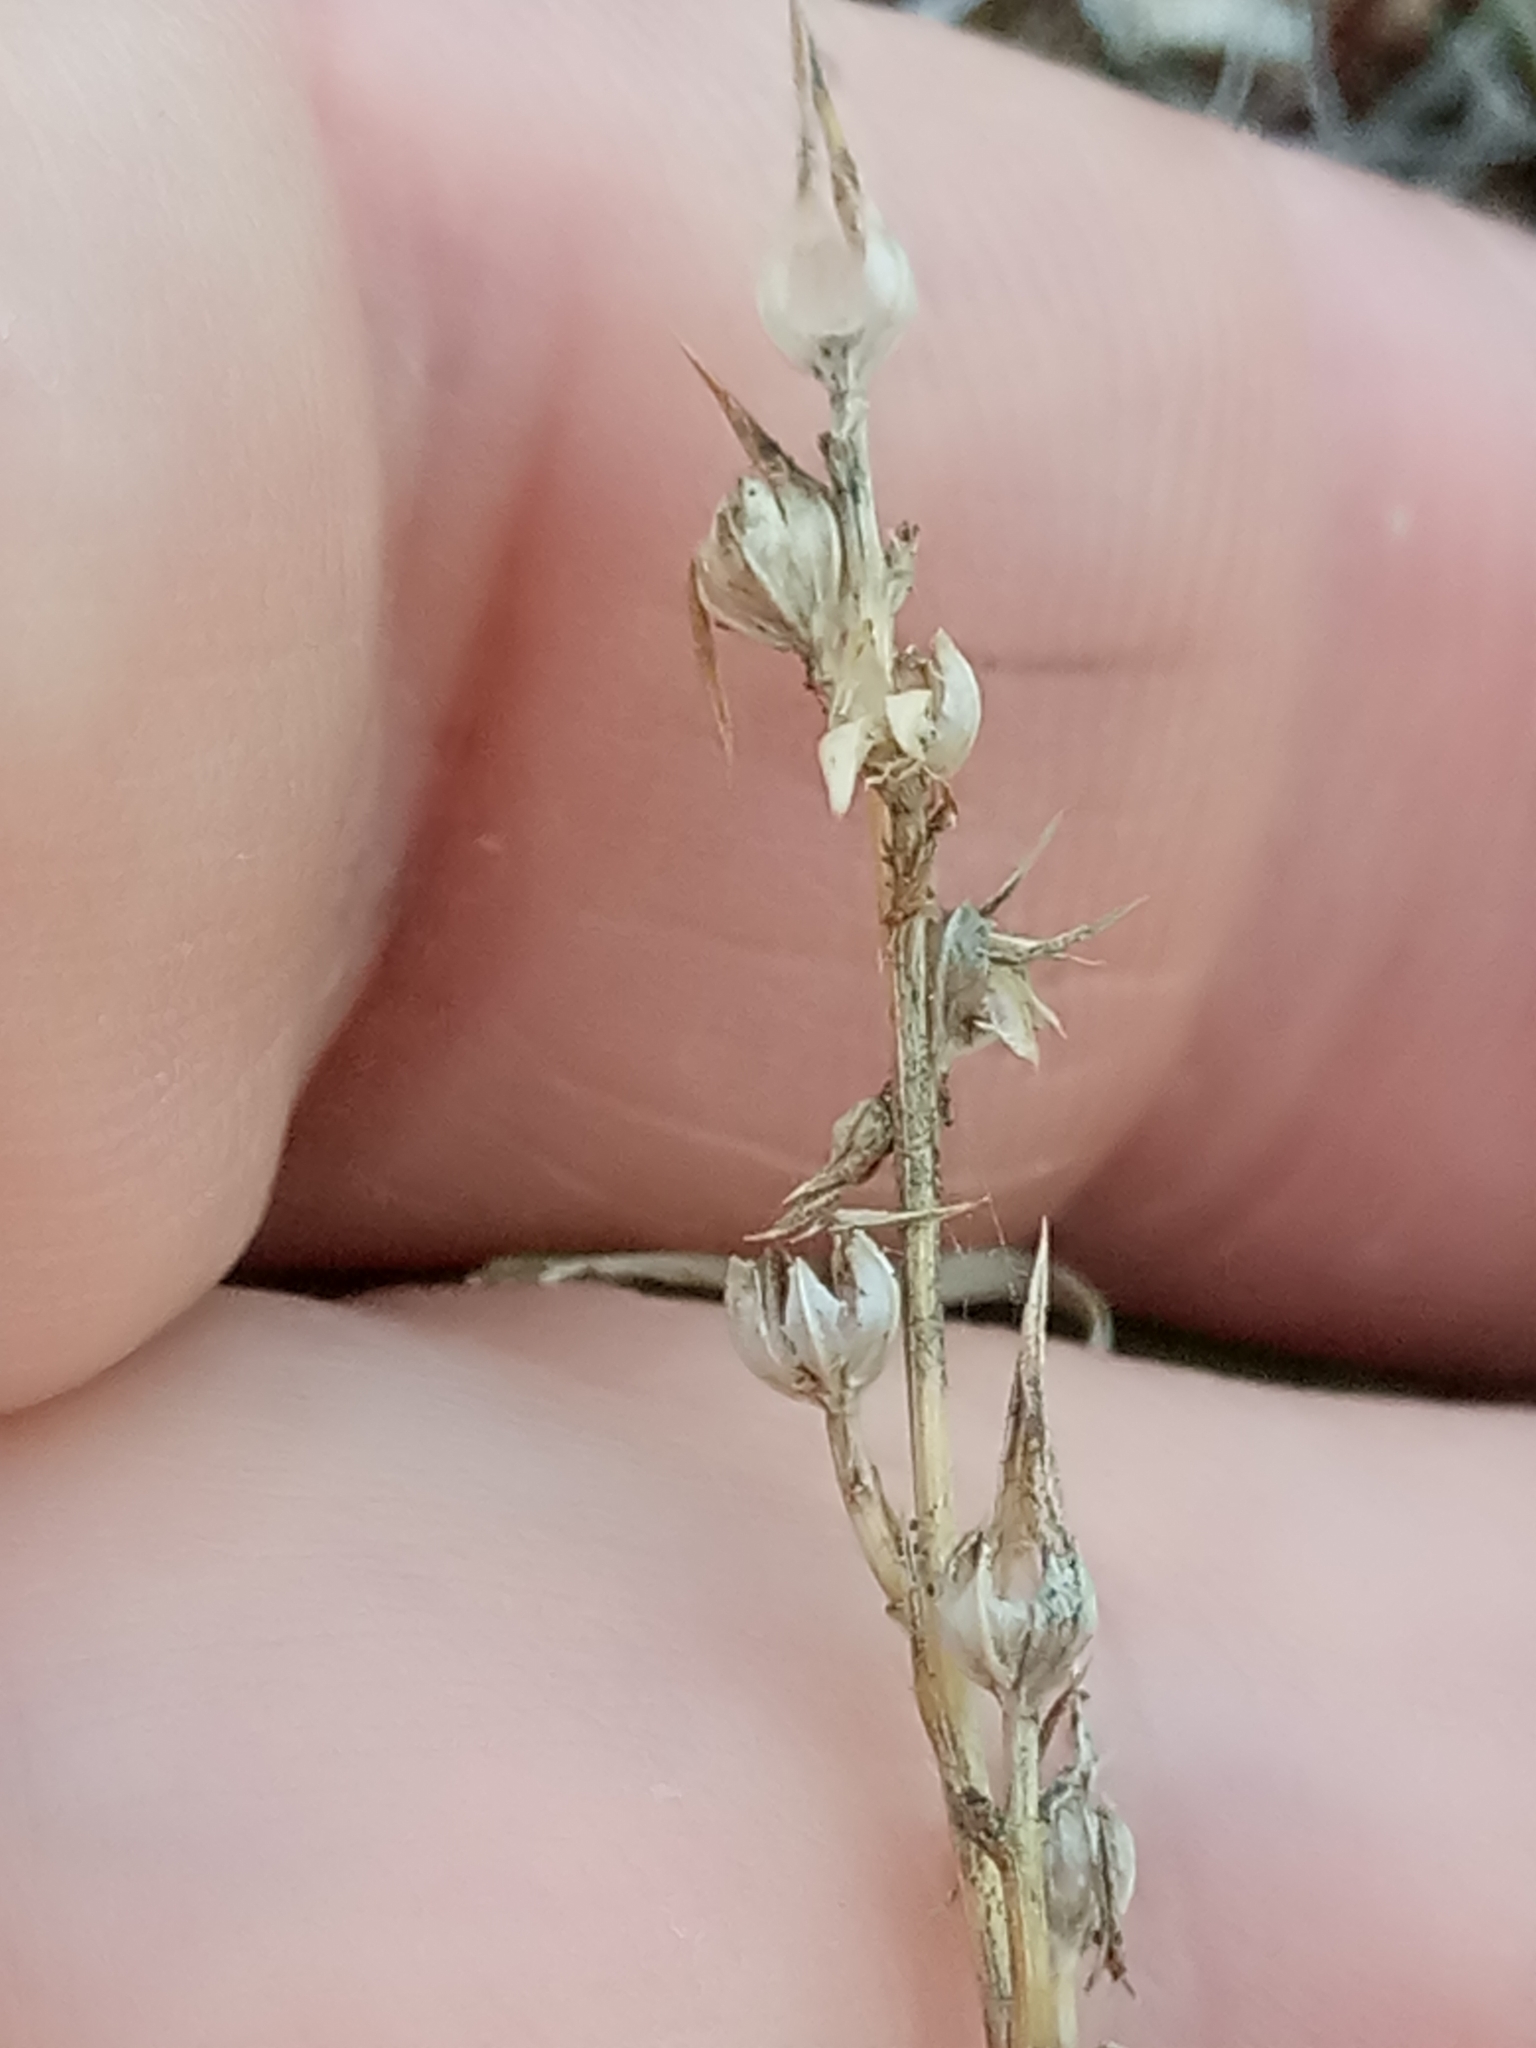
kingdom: Plantae
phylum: Tracheophyta
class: Magnoliopsida
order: Malpighiales
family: Linaceae
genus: Linum
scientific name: Linum strictum
